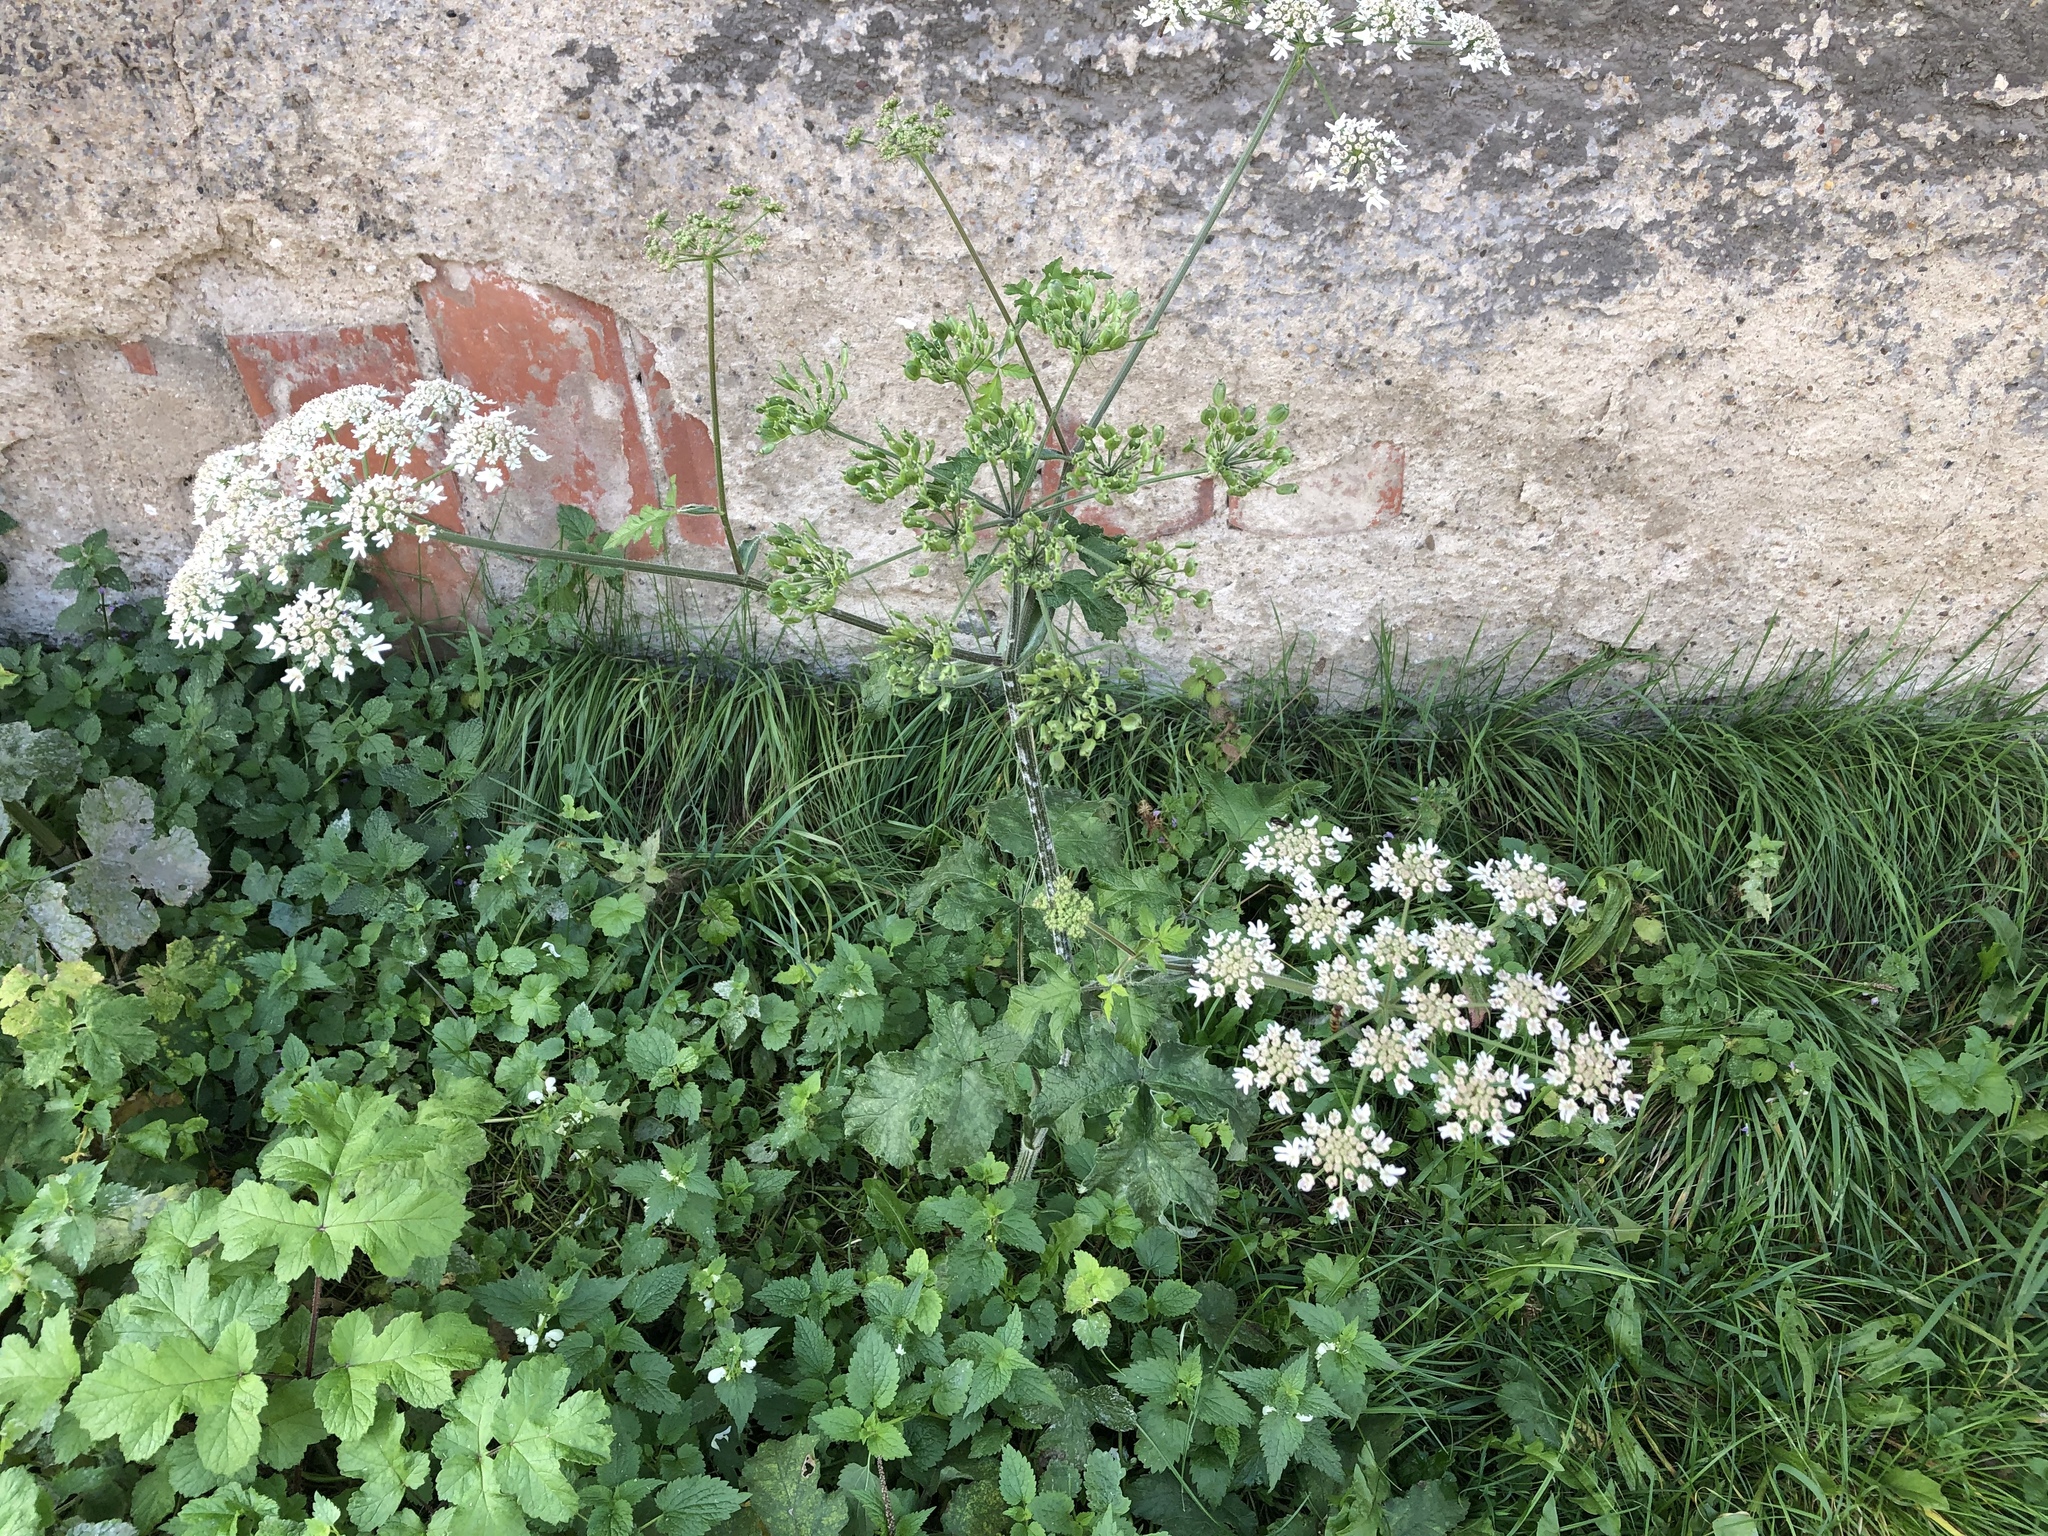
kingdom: Plantae
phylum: Tracheophyta
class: Magnoliopsida
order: Apiales
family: Apiaceae
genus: Heracleum
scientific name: Heracleum sphondylium
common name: Hogweed
